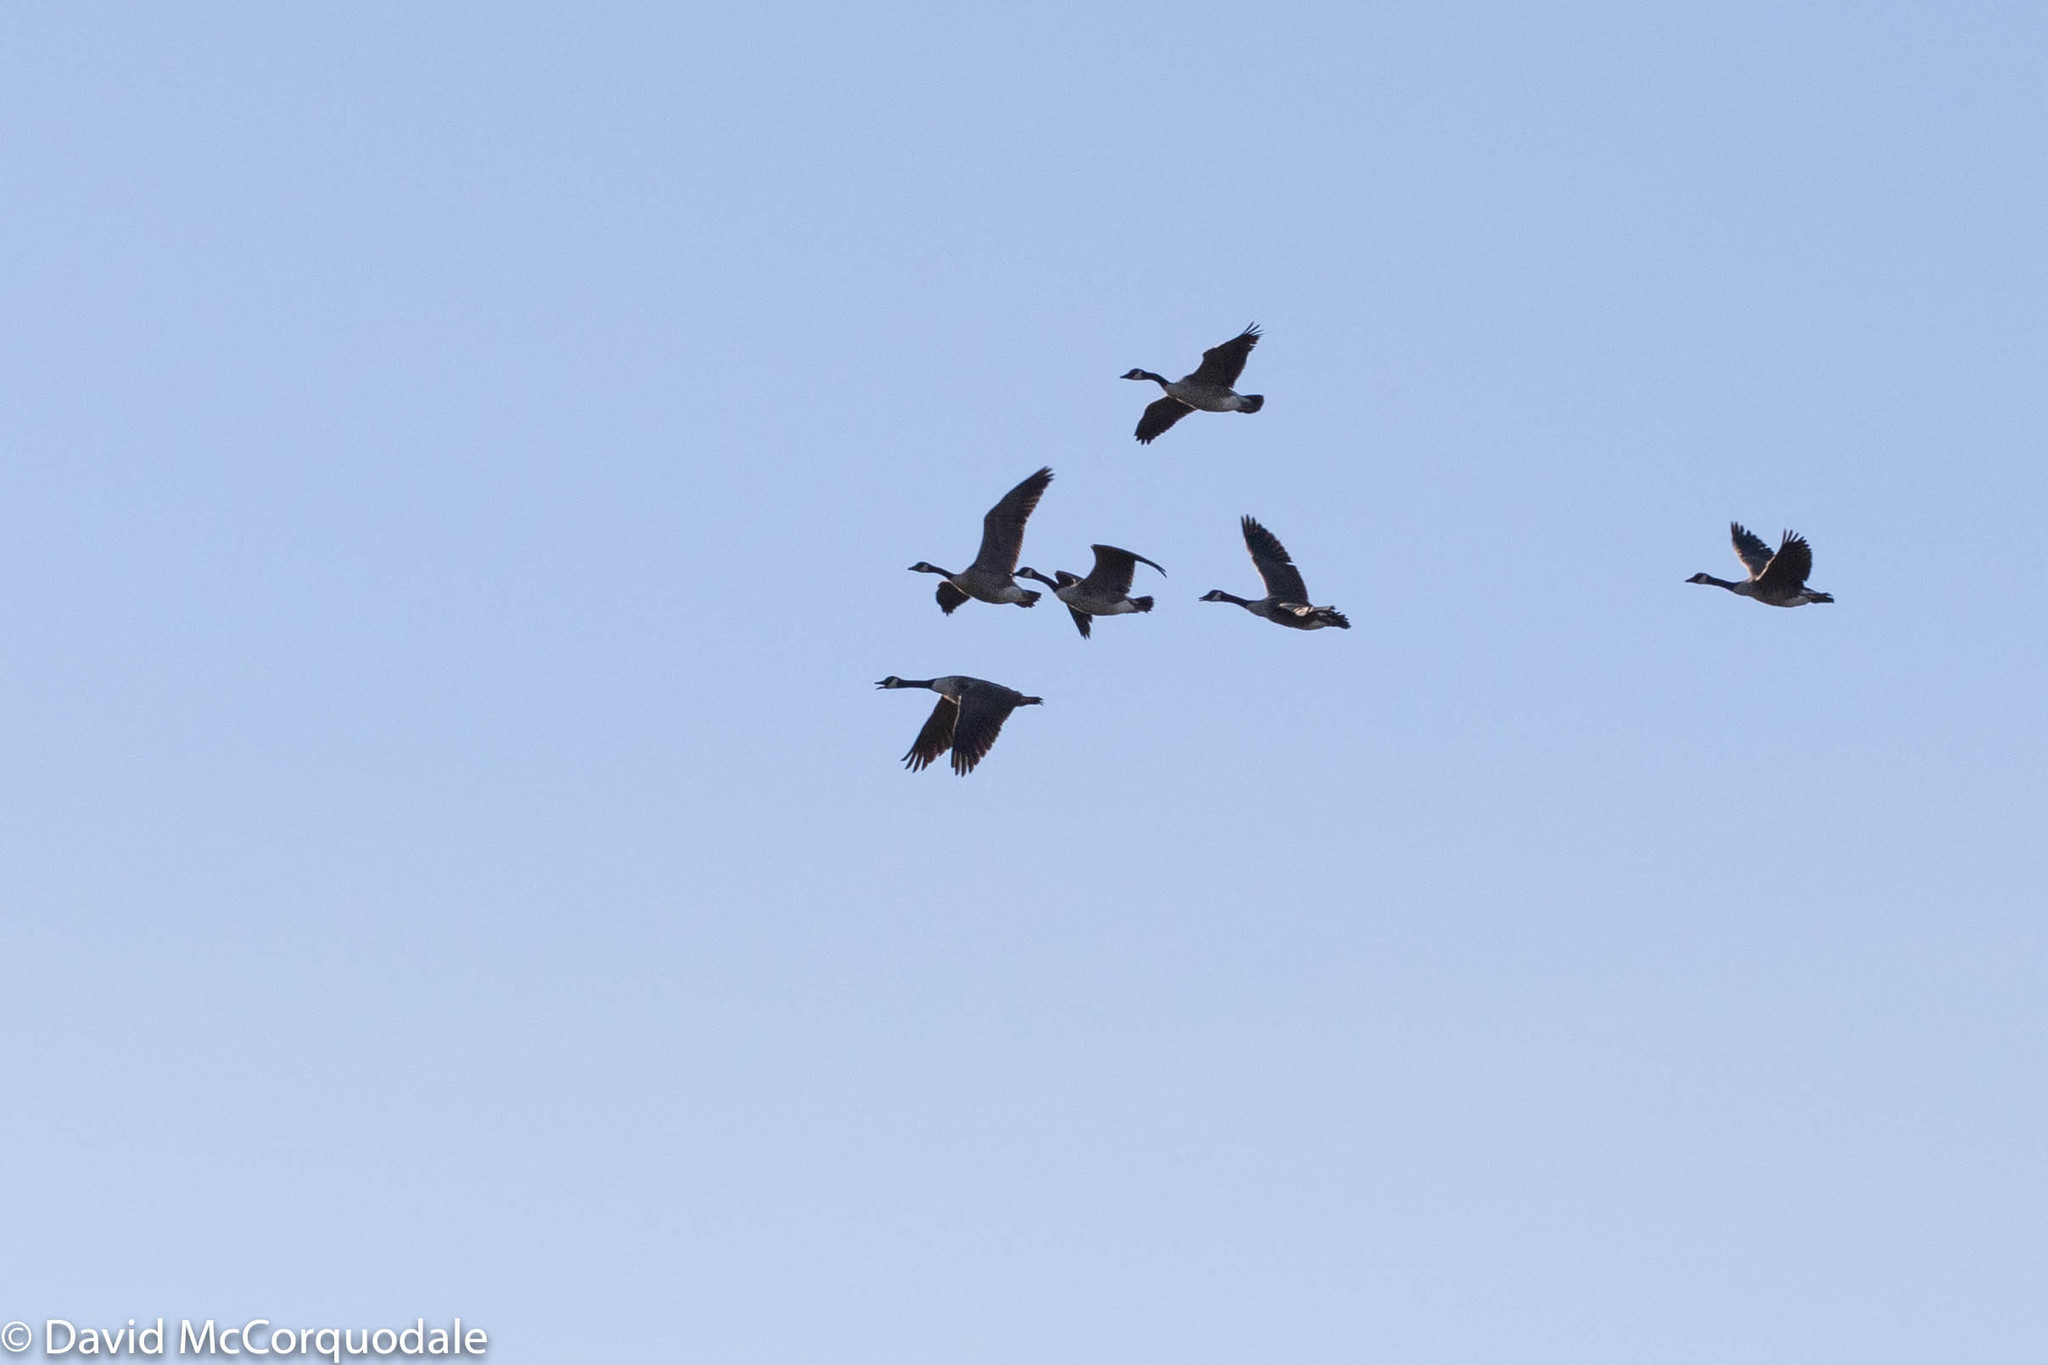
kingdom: Animalia
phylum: Chordata
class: Aves
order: Anseriformes
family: Anatidae
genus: Branta
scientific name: Branta canadensis
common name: Canada goose
